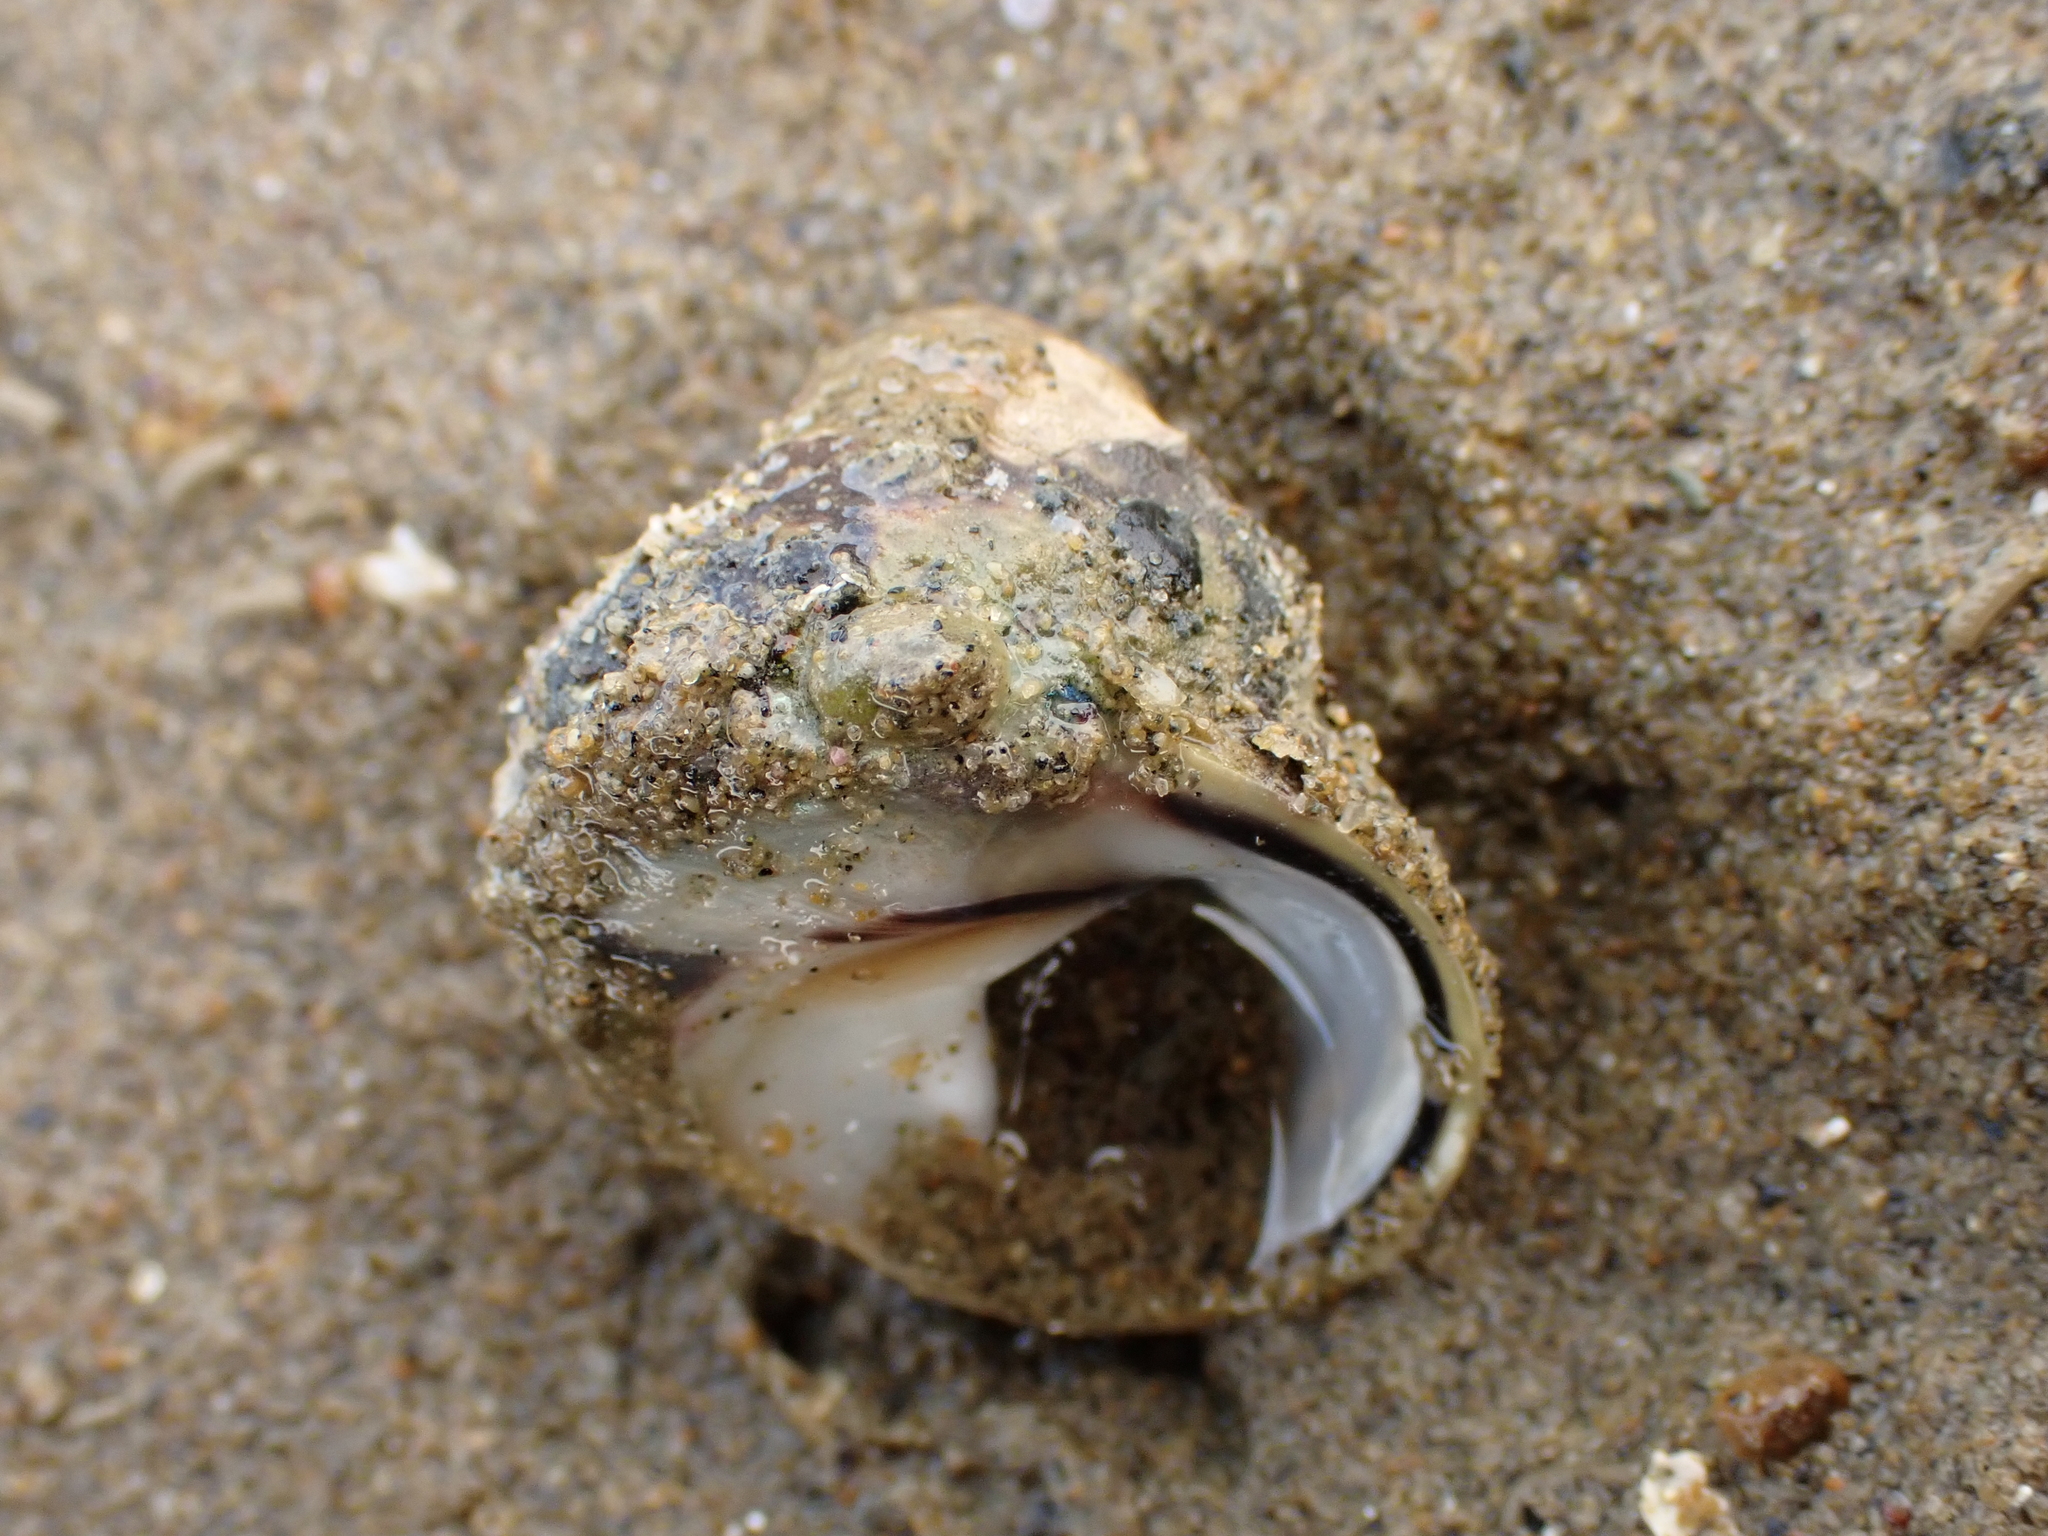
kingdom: Animalia
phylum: Mollusca
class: Gastropoda
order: Trochida
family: Trochidae
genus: Diloma
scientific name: Diloma subrostratum
